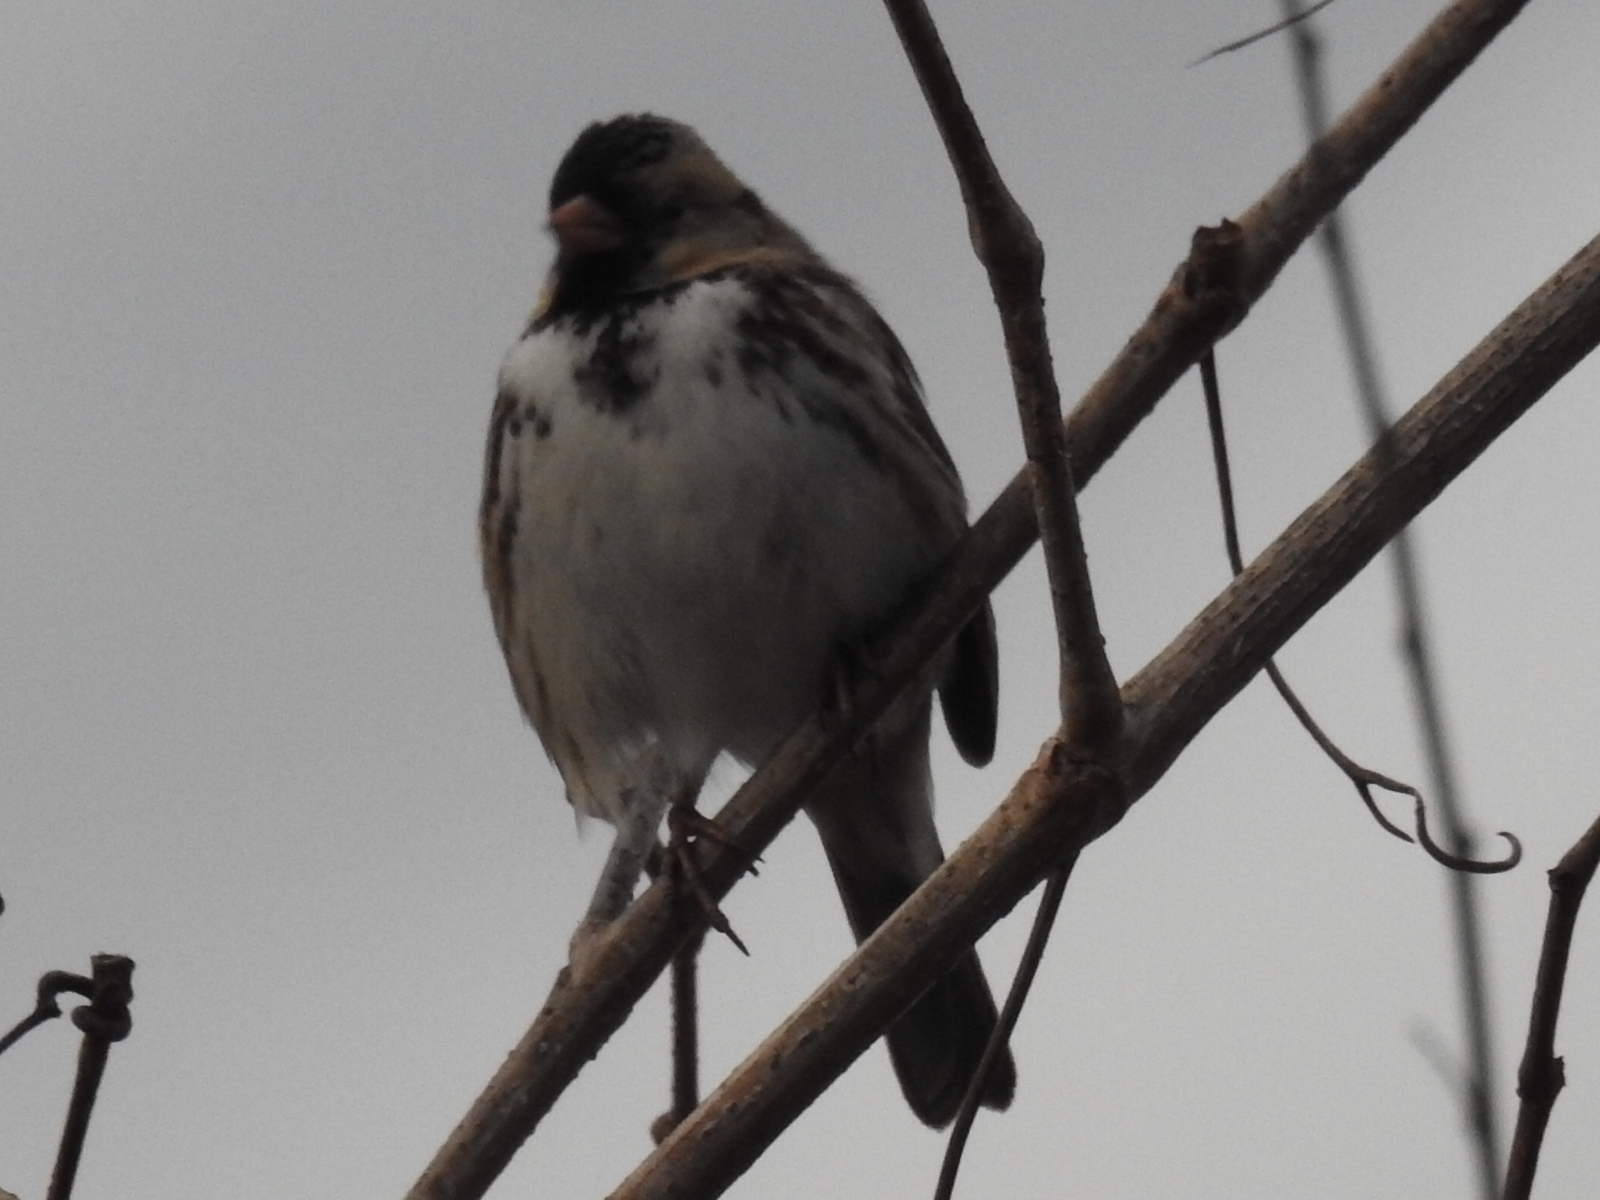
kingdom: Animalia
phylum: Chordata
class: Aves
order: Passeriformes
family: Passerellidae
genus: Zonotrichia
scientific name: Zonotrichia querula
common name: Harris's sparrow
